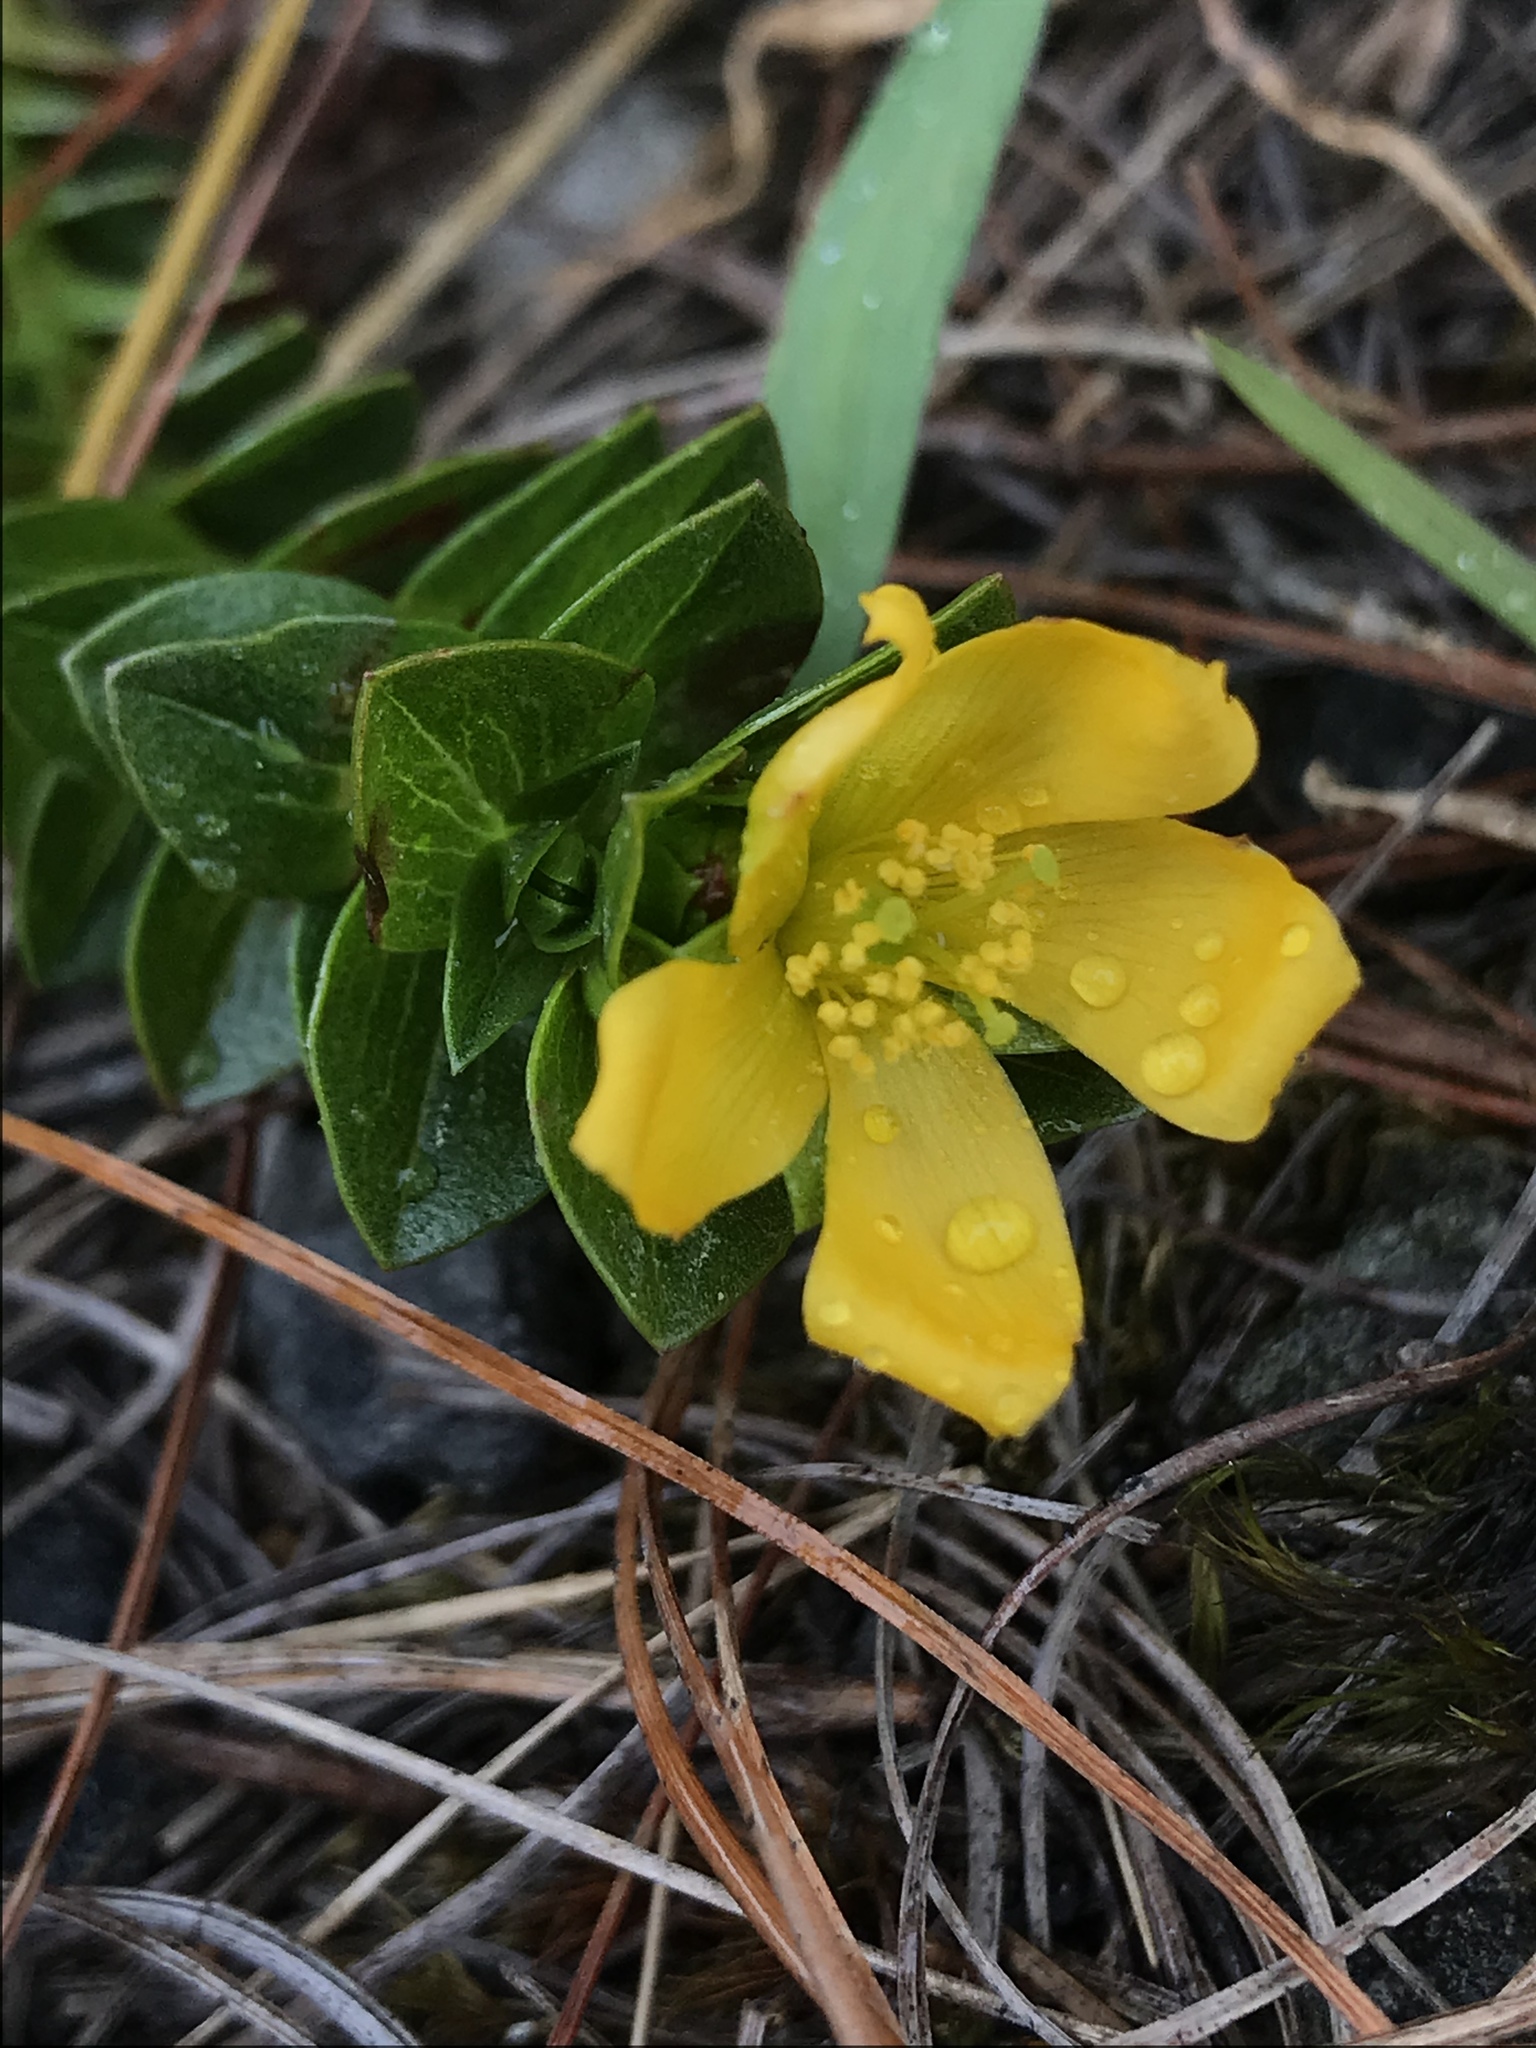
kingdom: Plantae
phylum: Tracheophyta
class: Magnoliopsida
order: Malpighiales
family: Hypericaceae
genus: Hypericum
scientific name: Hypericum mexicanum
